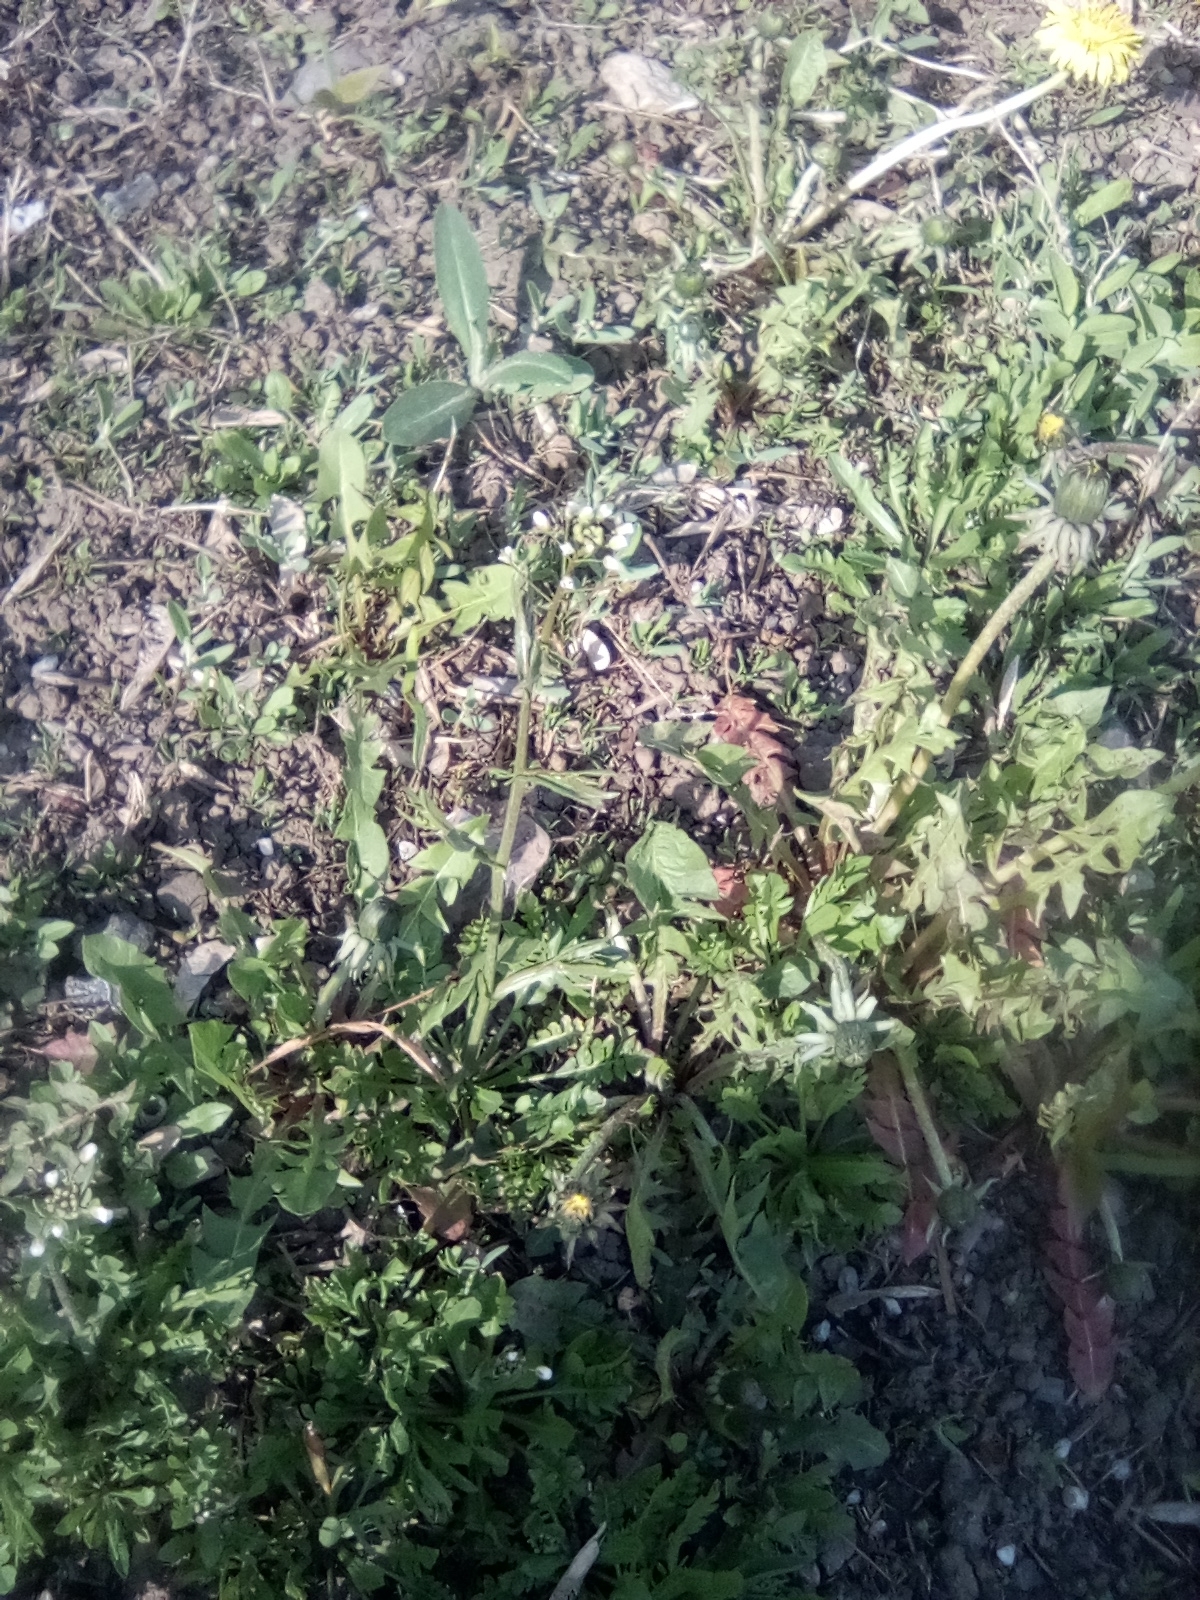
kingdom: Plantae
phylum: Tracheophyta
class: Magnoliopsida
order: Brassicales
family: Brassicaceae
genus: Capsella
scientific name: Capsella bursa-pastoris
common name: Shepherd's purse
